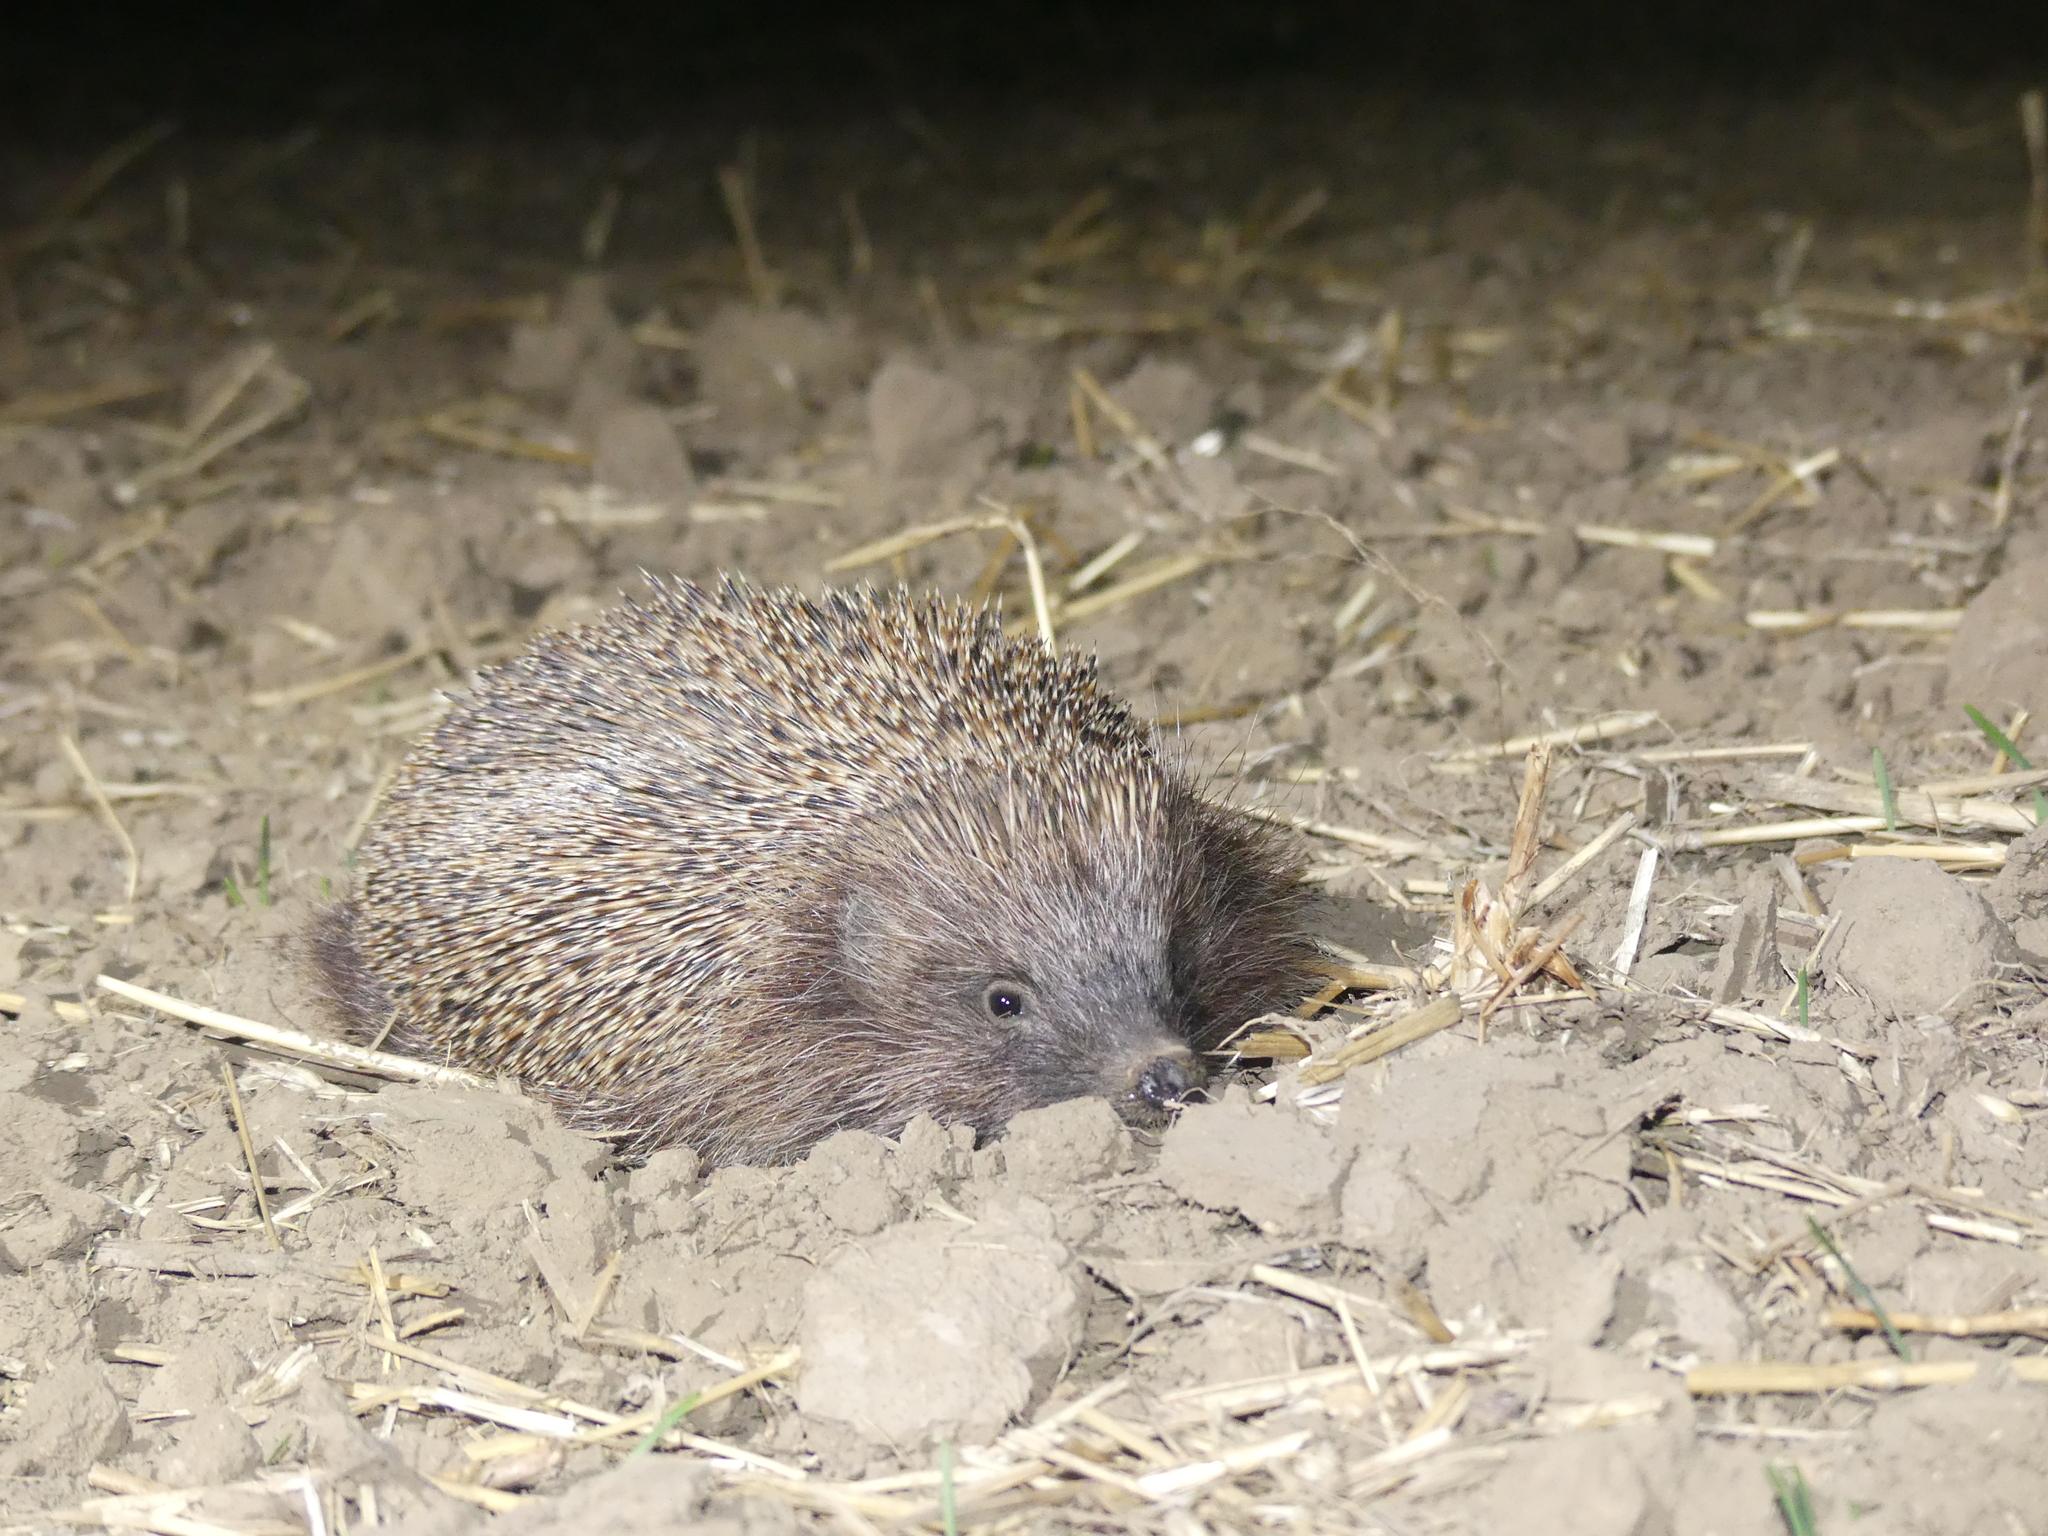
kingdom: Animalia
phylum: Chordata
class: Mammalia
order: Erinaceomorpha
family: Erinaceidae
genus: Erinaceus
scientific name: Erinaceus roumanicus
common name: Northern white-breasted hedgehog
